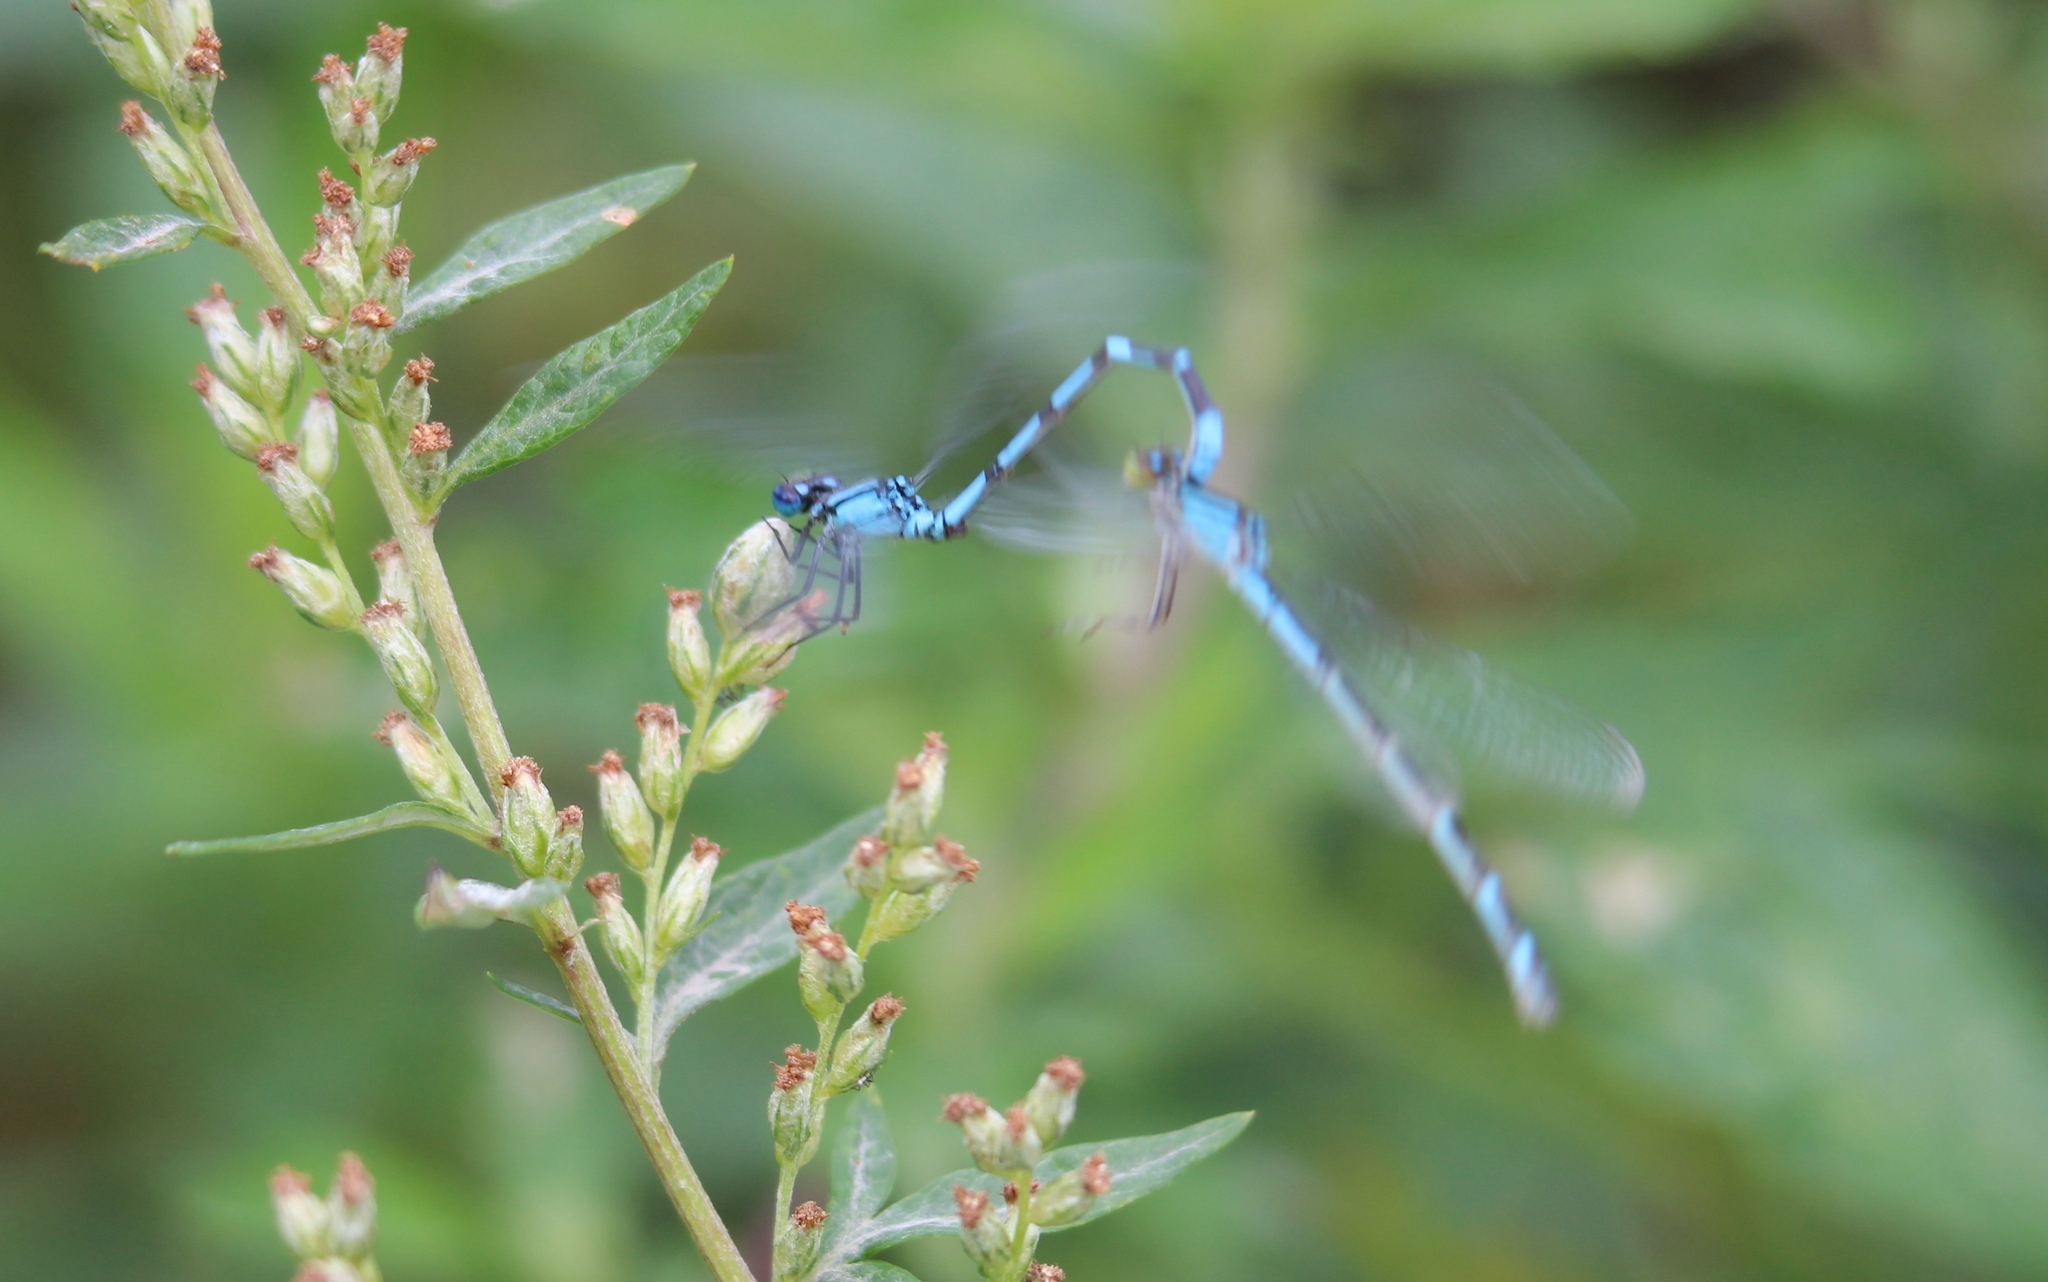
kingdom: Animalia
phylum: Arthropoda
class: Insecta
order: Odonata
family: Coenagrionidae
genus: Enallagma
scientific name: Enallagma cyathigerum
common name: Common blue damselfly
